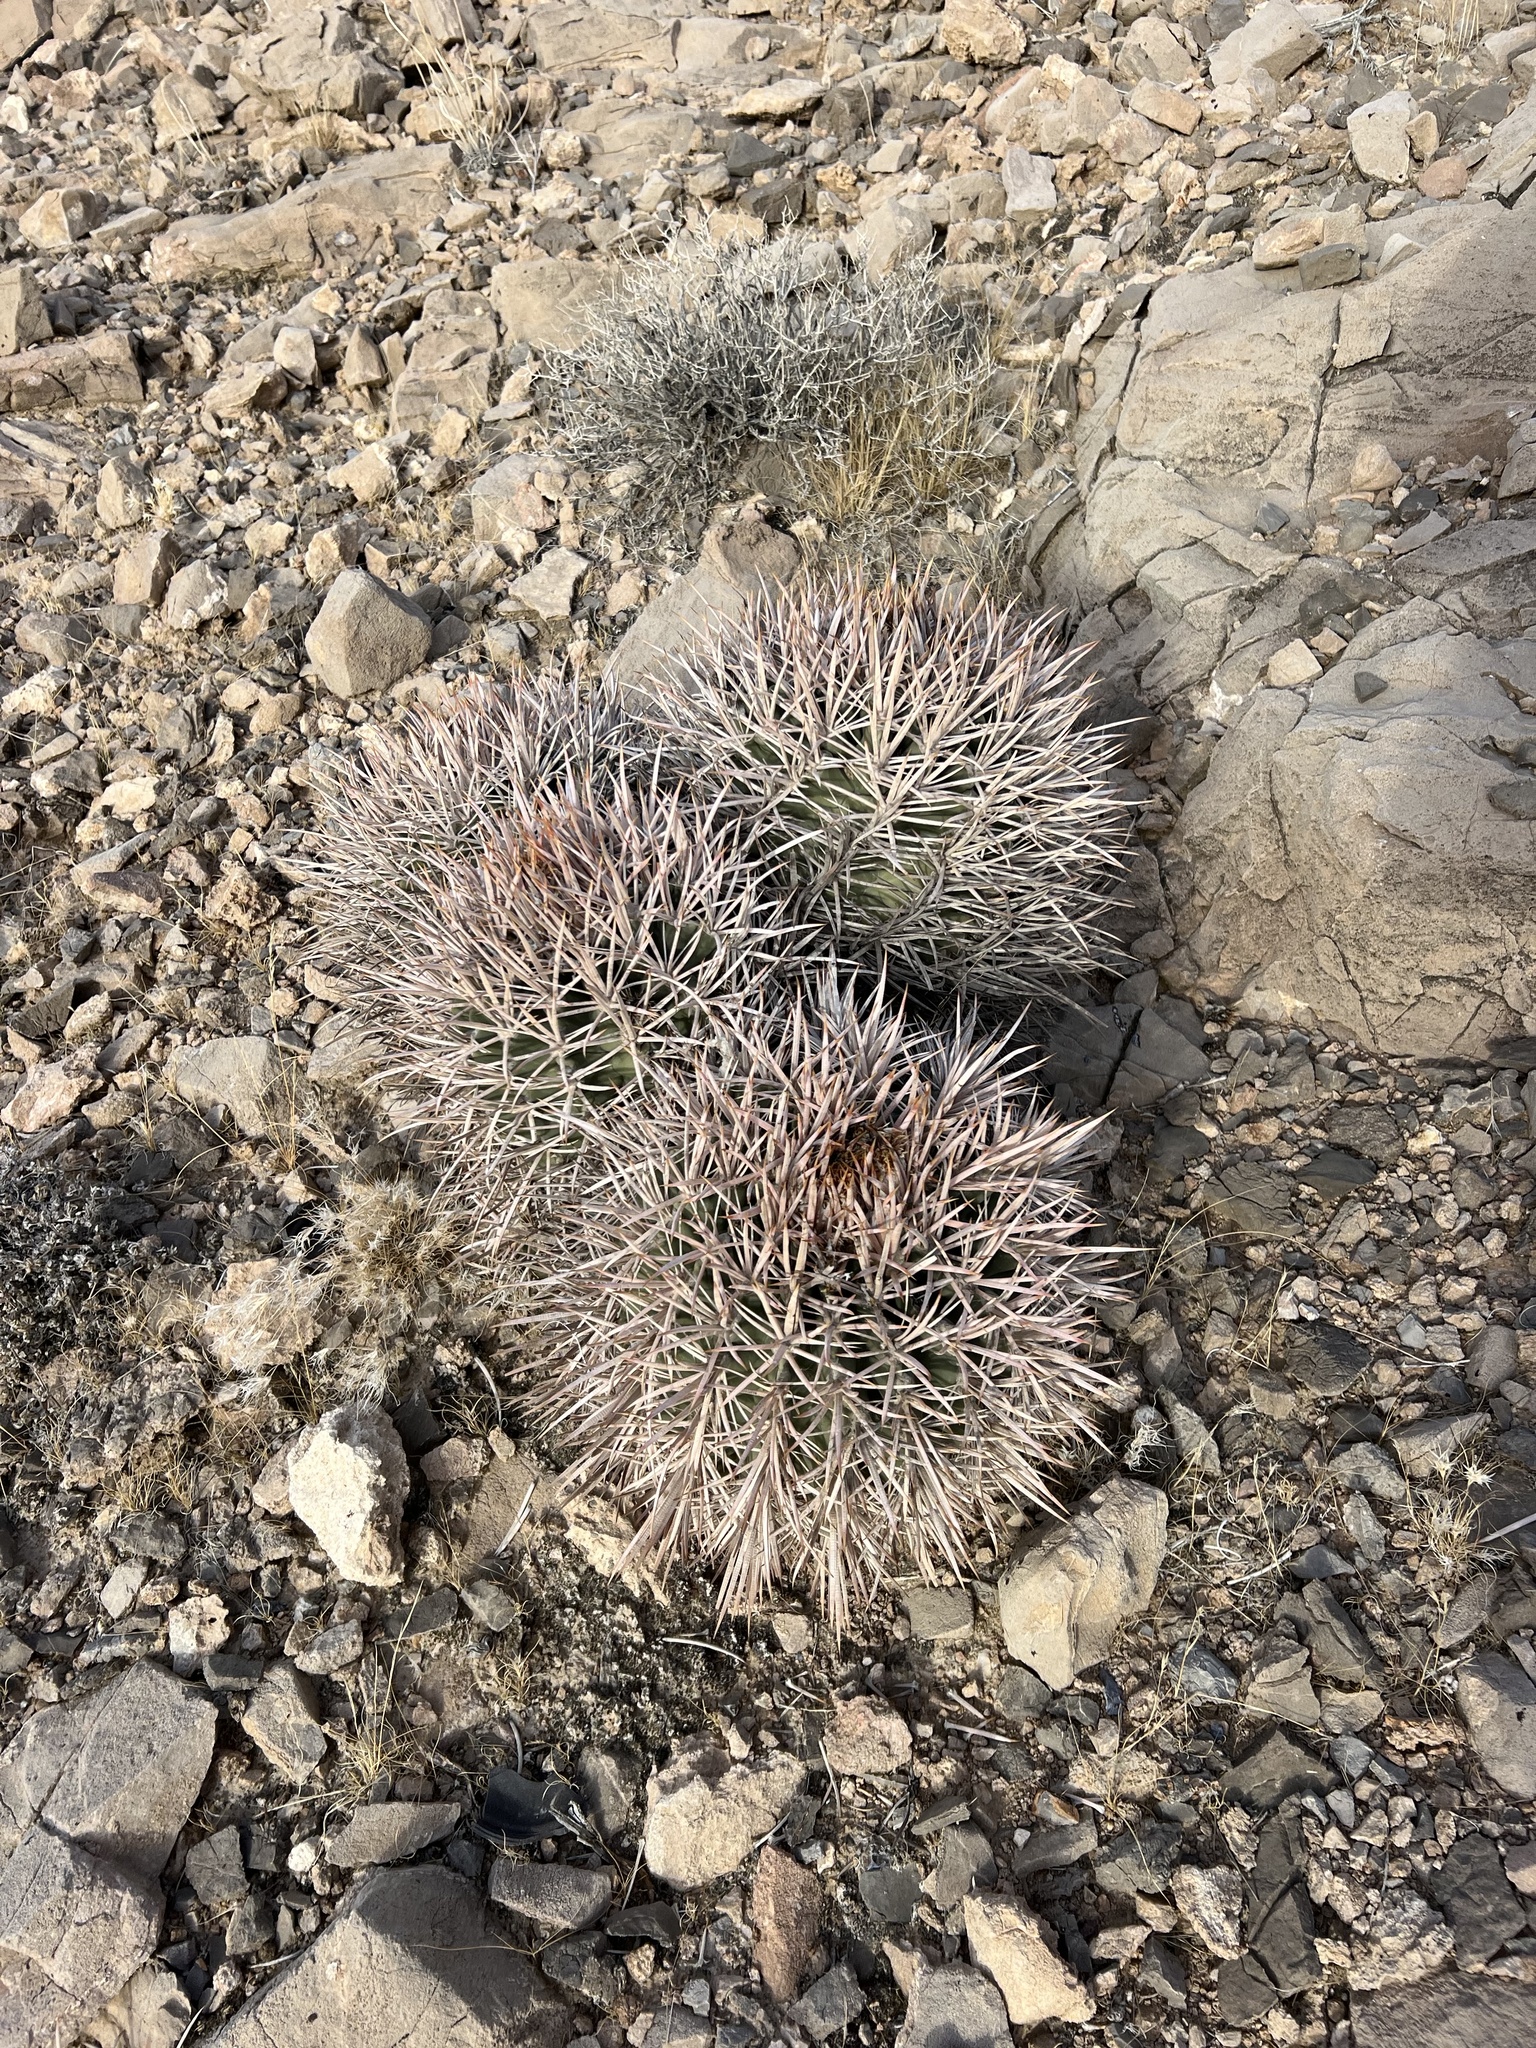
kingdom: Plantae
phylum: Tracheophyta
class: Magnoliopsida
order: Caryophyllales
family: Cactaceae
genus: Echinocactus
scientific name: Echinocactus polycephalus
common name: Cottontop cactus
